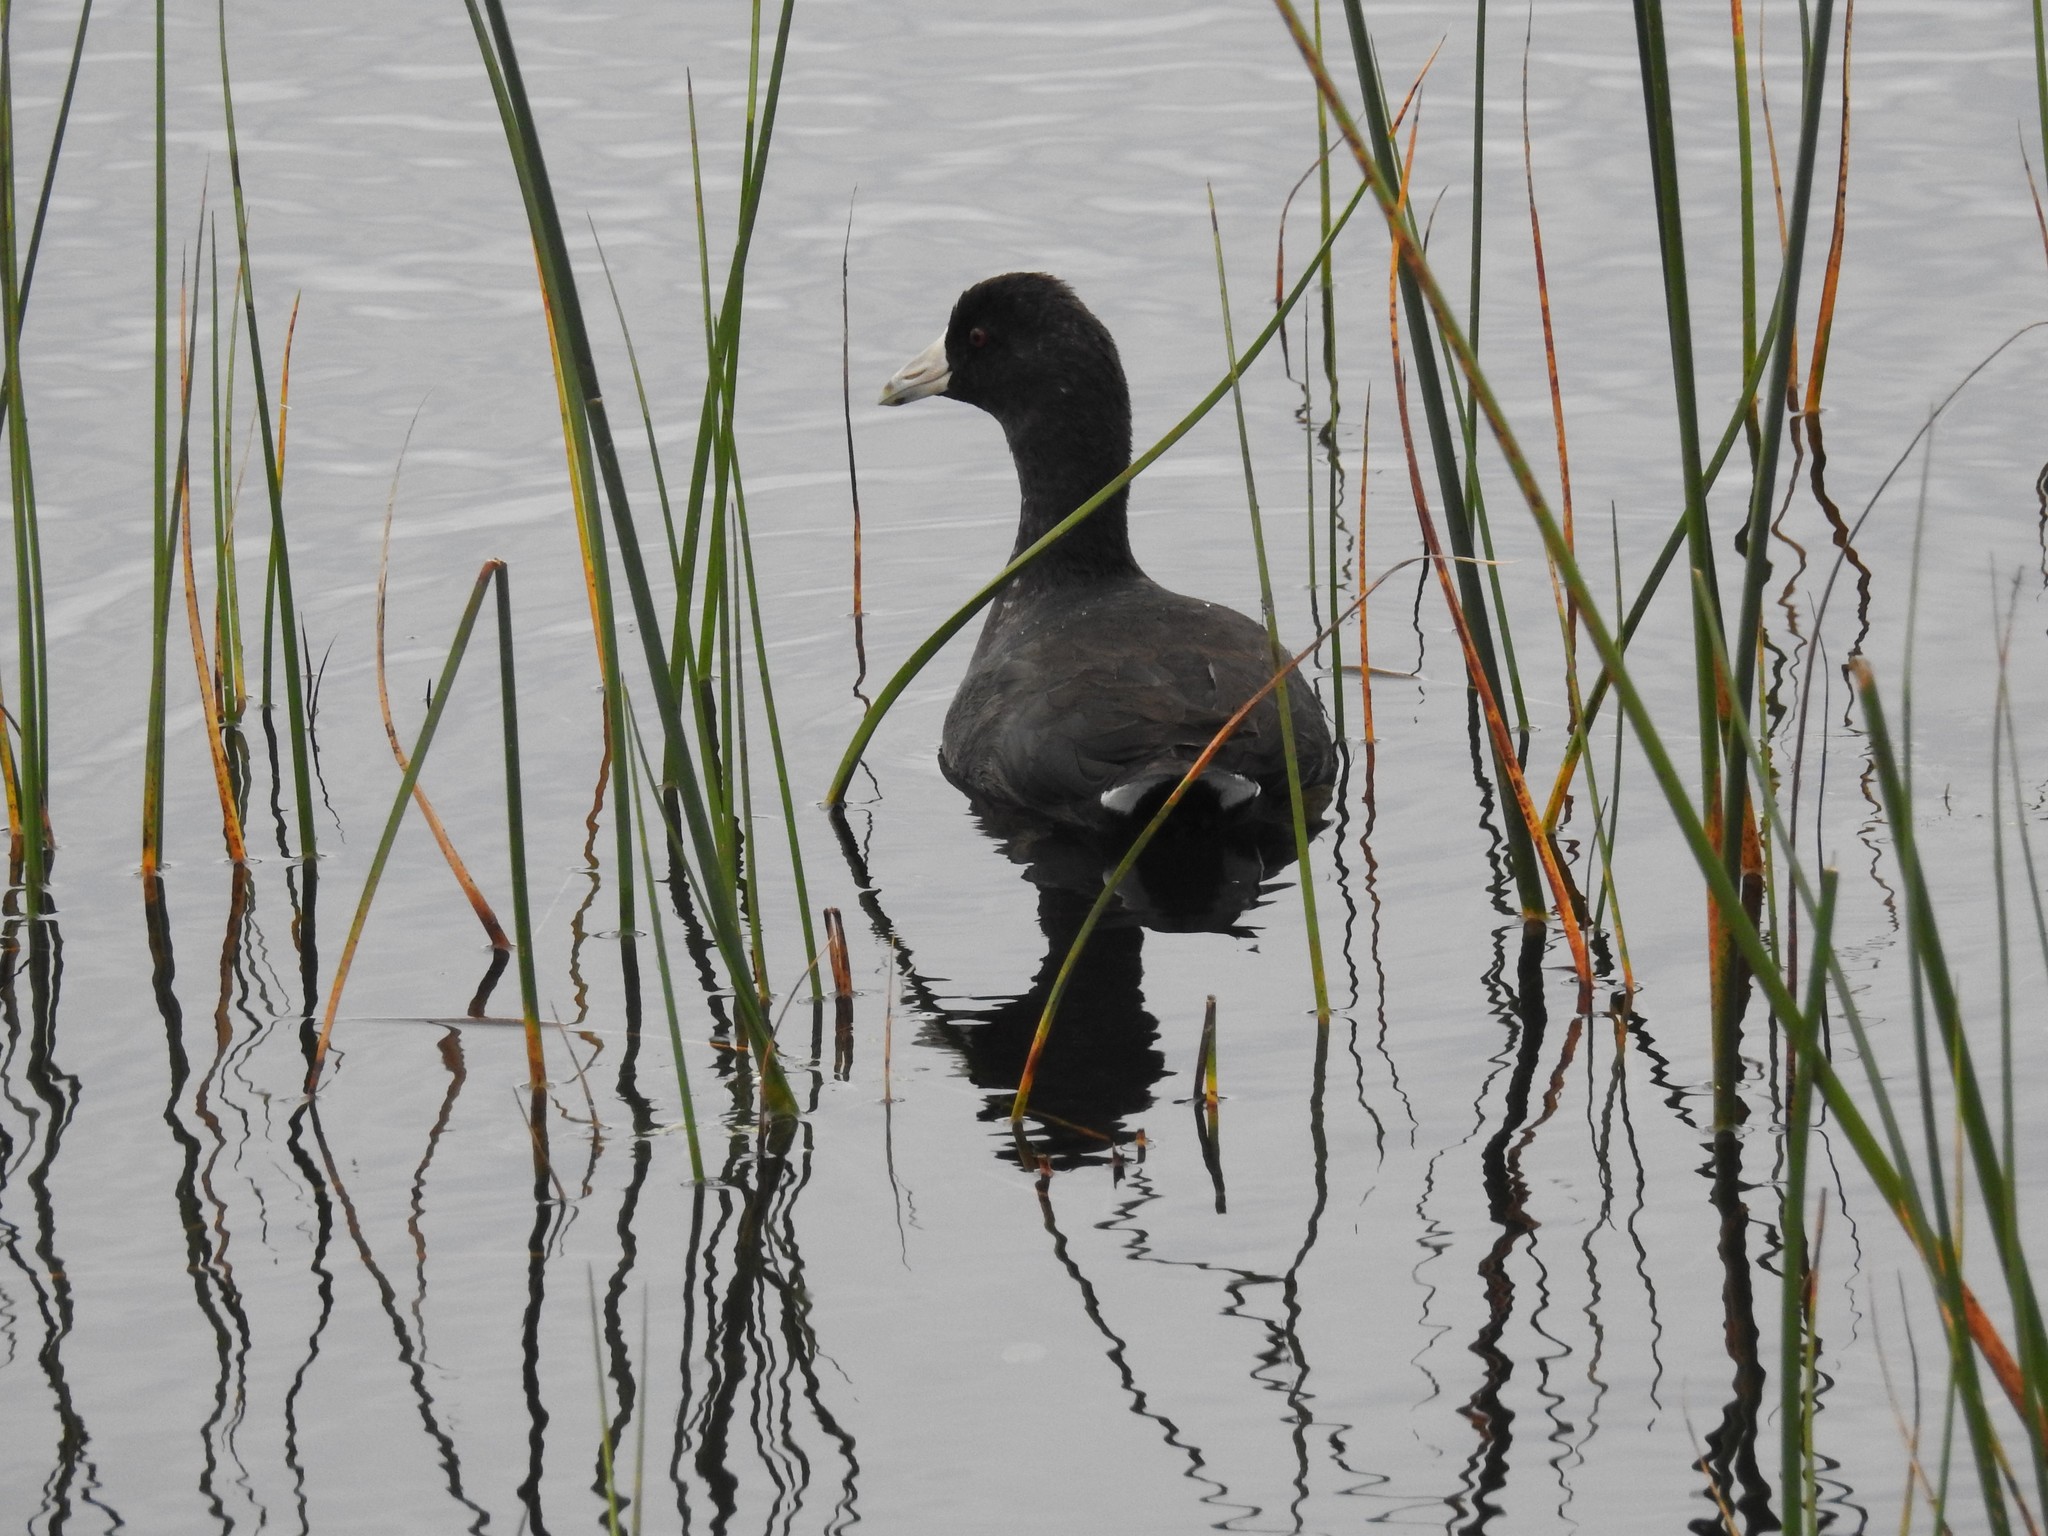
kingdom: Animalia
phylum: Chordata
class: Aves
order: Gruiformes
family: Rallidae
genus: Fulica
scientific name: Fulica americana
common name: American coot
